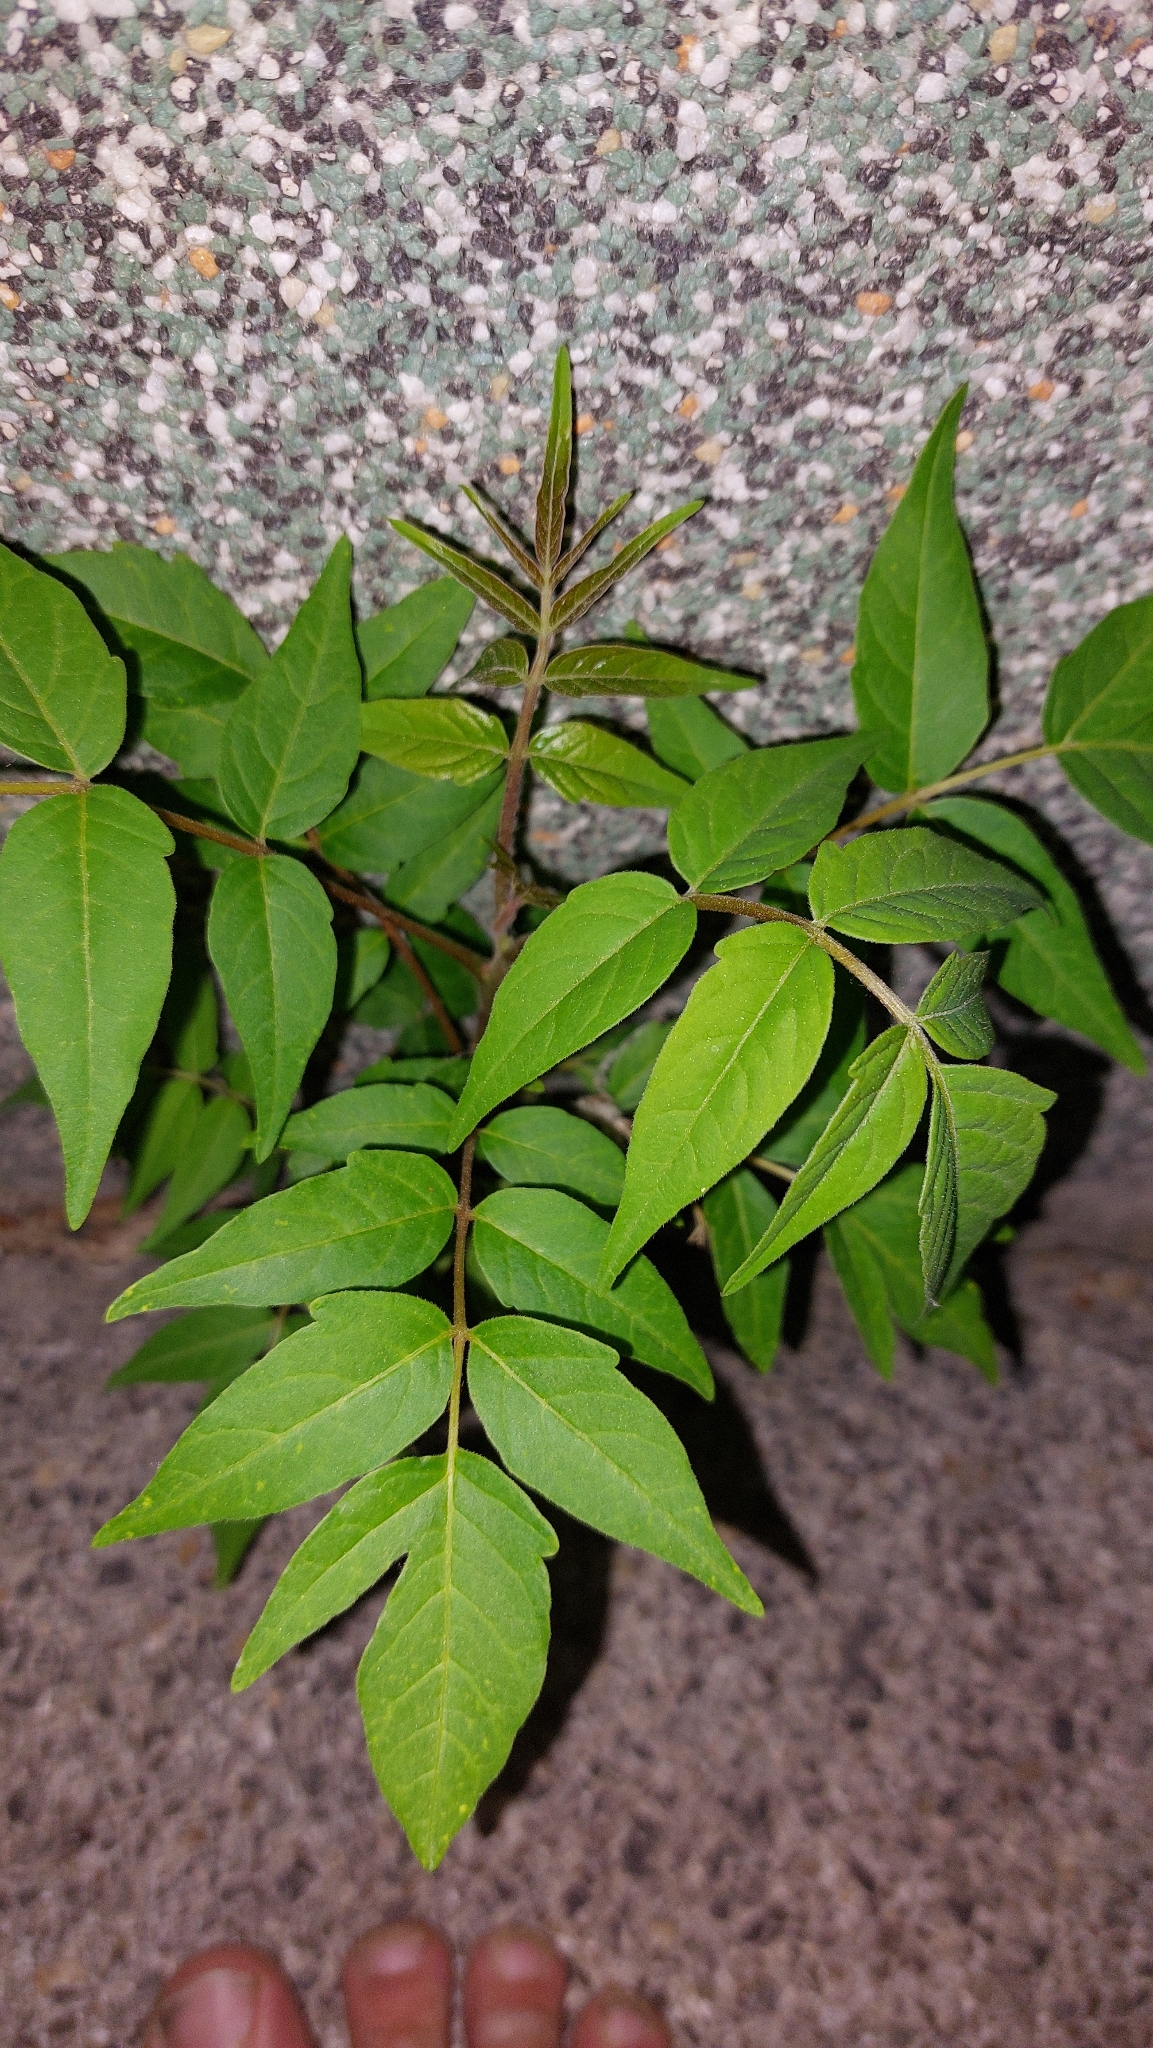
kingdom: Plantae
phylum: Tracheophyta
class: Magnoliopsida
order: Sapindales
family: Simaroubaceae
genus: Ailanthus
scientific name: Ailanthus altissima
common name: Tree-of-heaven
